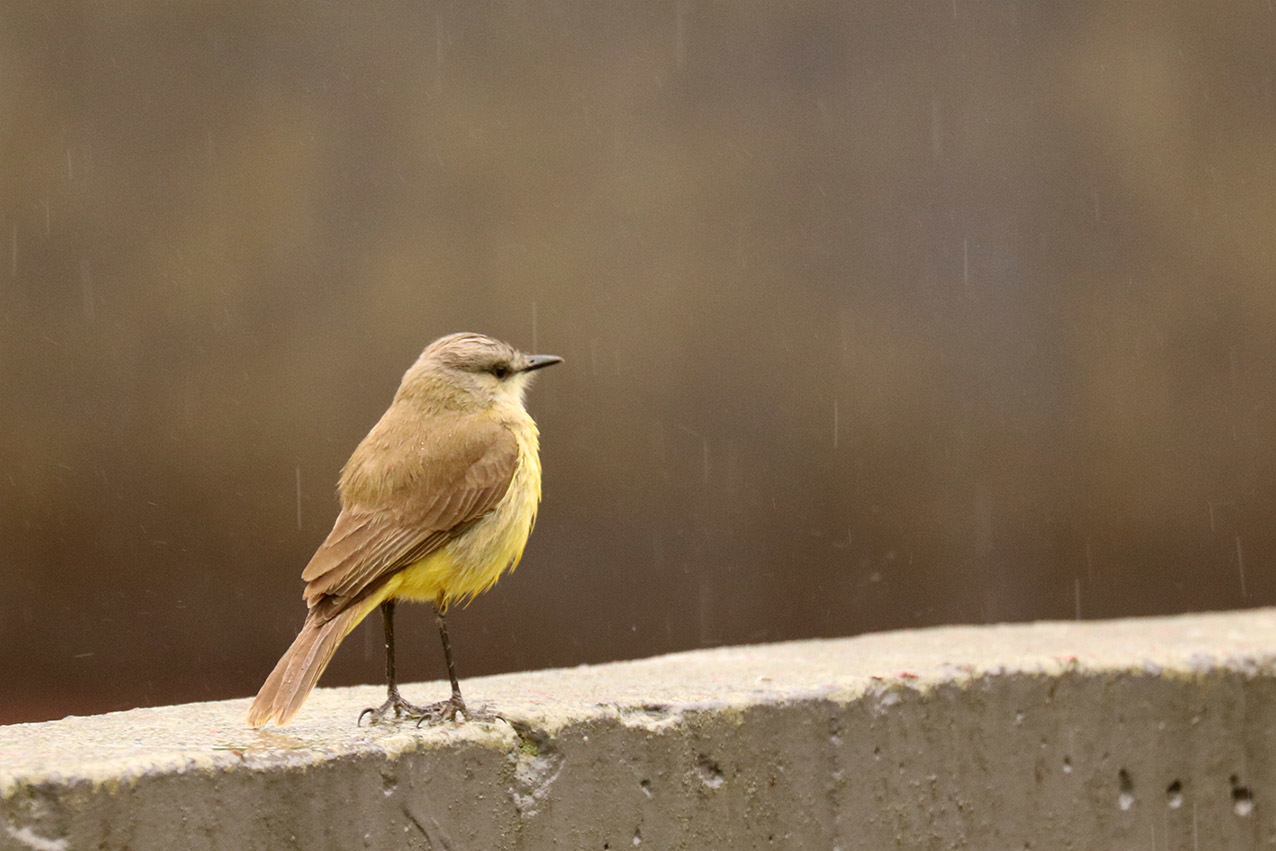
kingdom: Animalia
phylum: Chordata
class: Aves
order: Passeriformes
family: Tyrannidae
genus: Machetornis
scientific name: Machetornis rixosa
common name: Cattle tyrant
